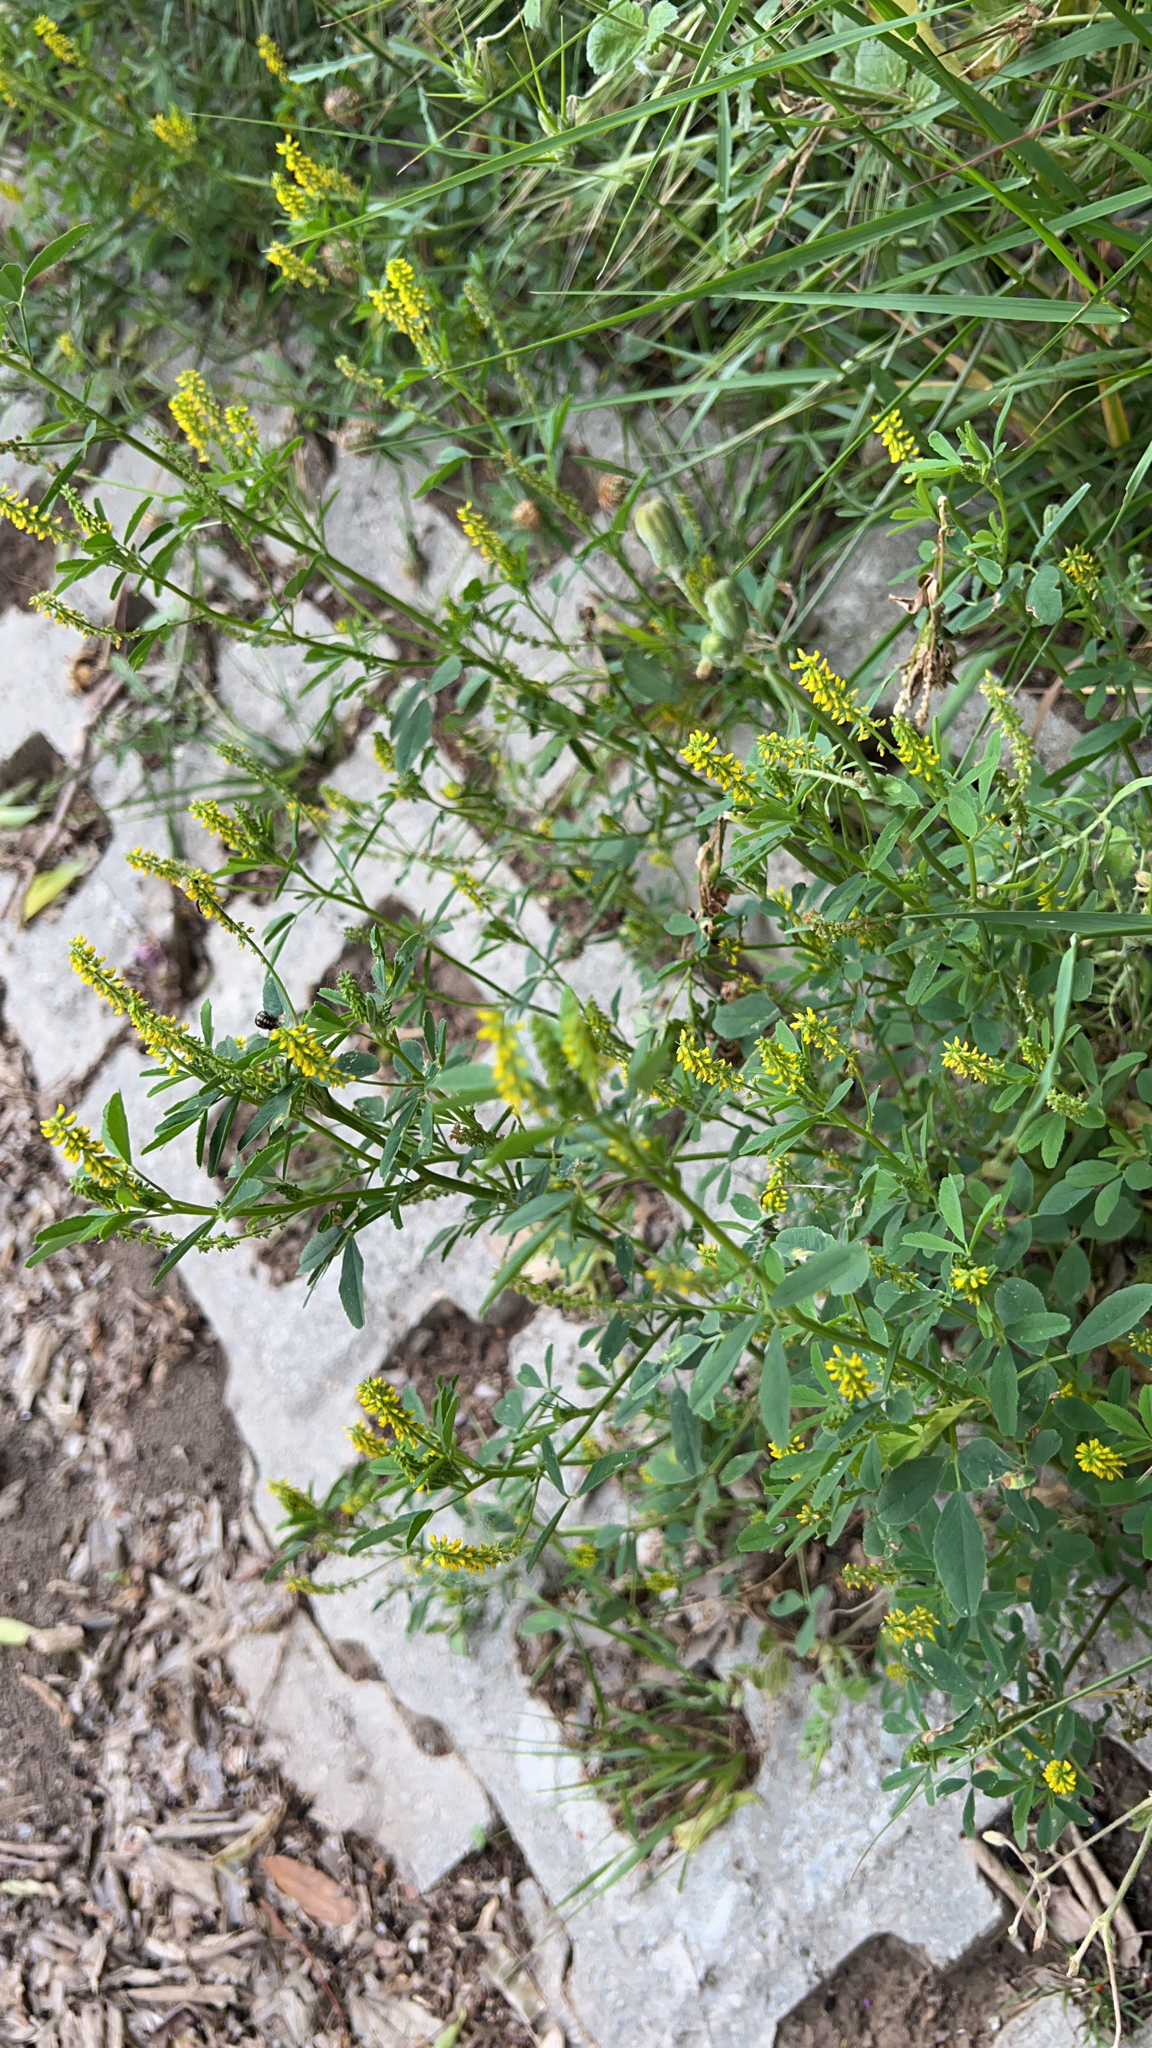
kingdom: Plantae
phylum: Tracheophyta
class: Magnoliopsida
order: Fabales
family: Fabaceae
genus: Melilotus
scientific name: Melilotus indicus
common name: Small melilot
